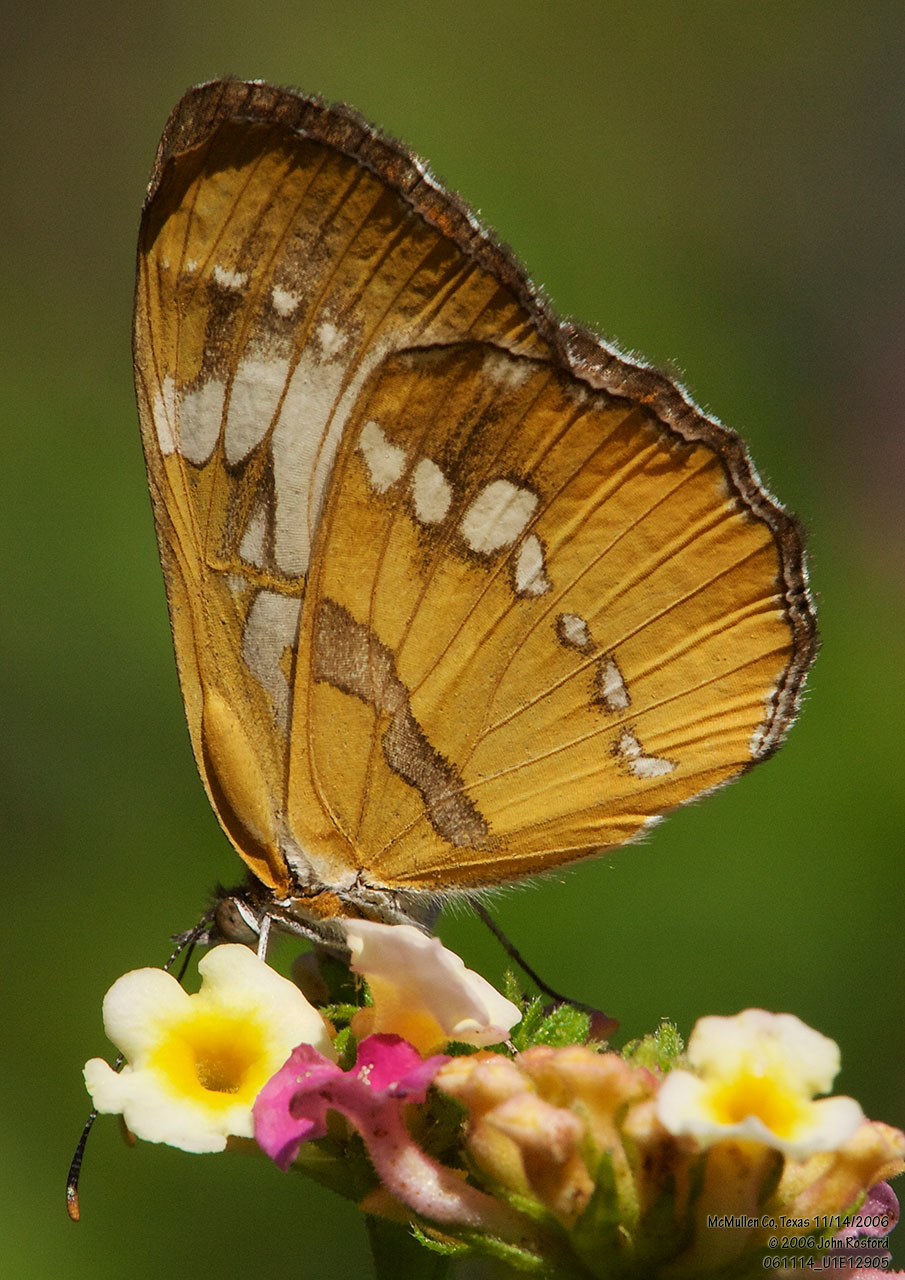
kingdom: Animalia
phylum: Arthropoda
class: Insecta
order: Lepidoptera
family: Nymphalidae
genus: Mestra
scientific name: Mestra amymone
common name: Common mestra
